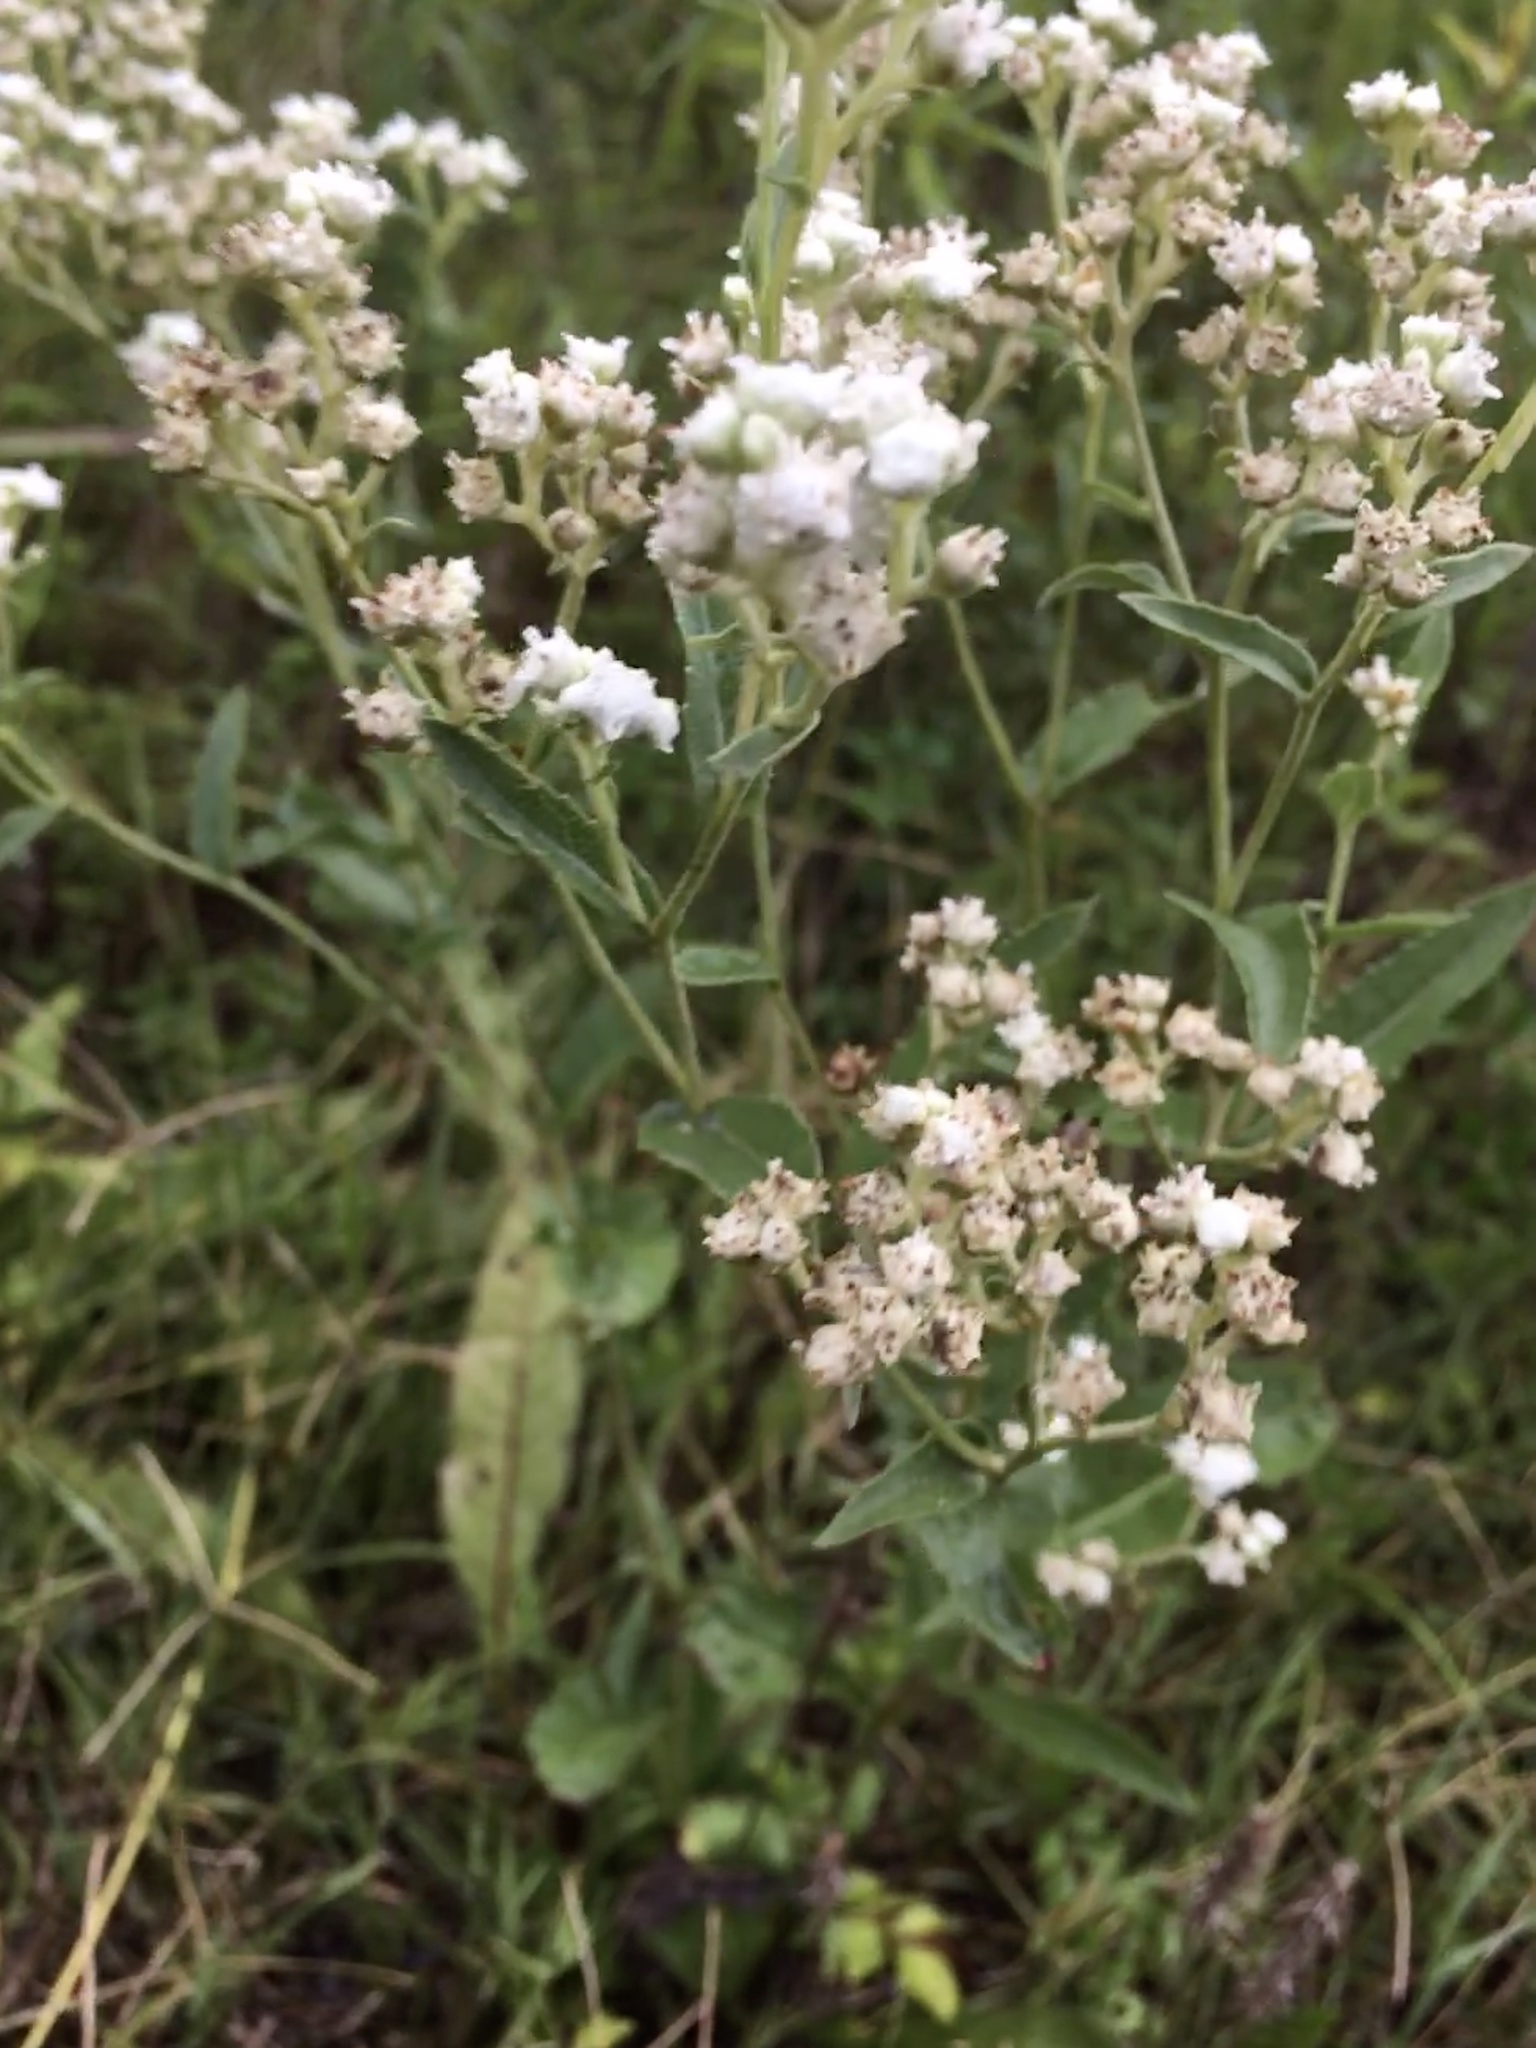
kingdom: Plantae
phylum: Tracheophyta
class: Magnoliopsida
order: Asterales
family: Asteraceae
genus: Parthenium
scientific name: Parthenium integrifolium
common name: American feverfew
